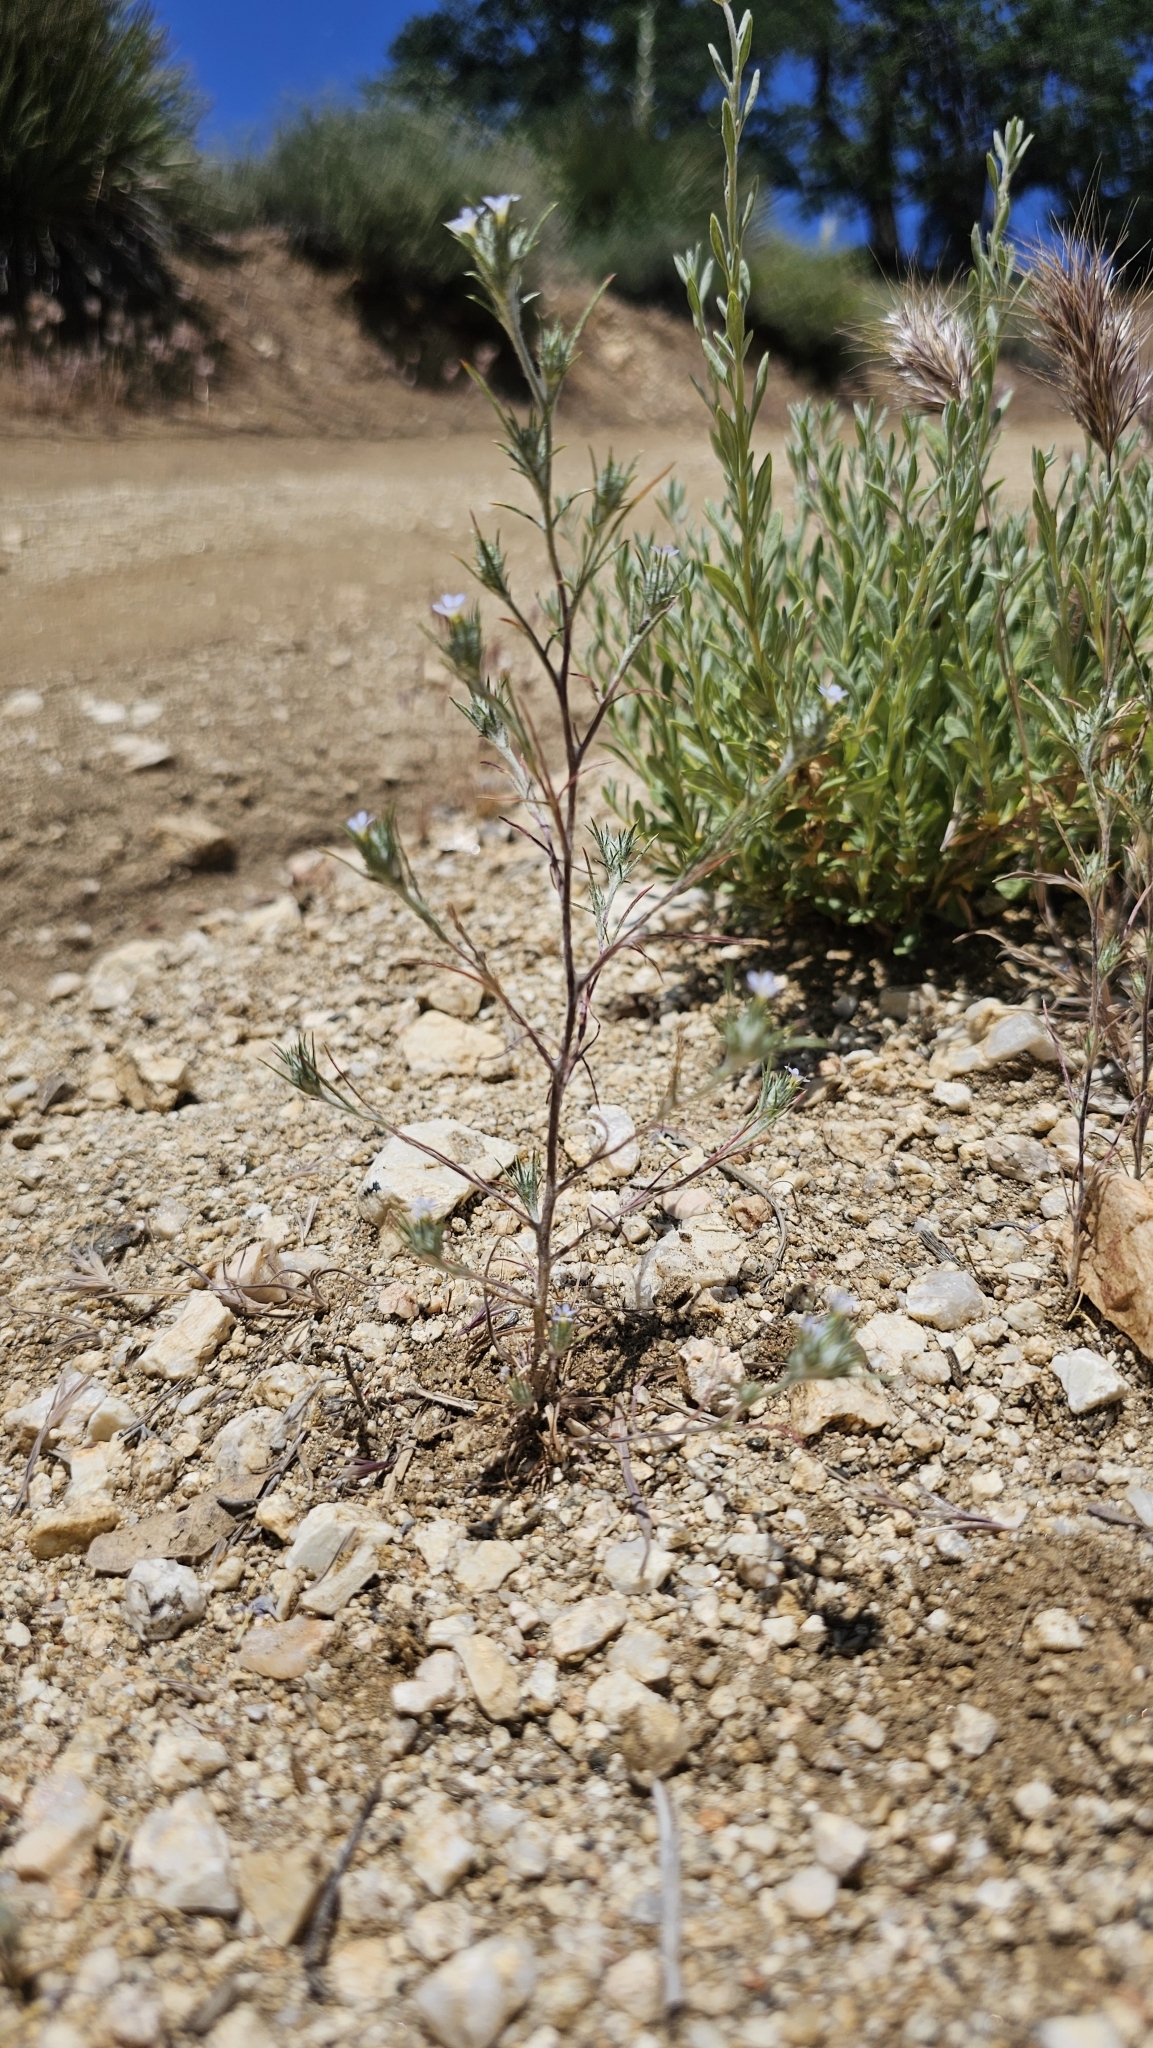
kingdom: Plantae
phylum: Tracheophyta
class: Magnoliopsida
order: Ericales
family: Polemoniaceae
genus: Eriastrum
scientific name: Eriastrum tracyi
